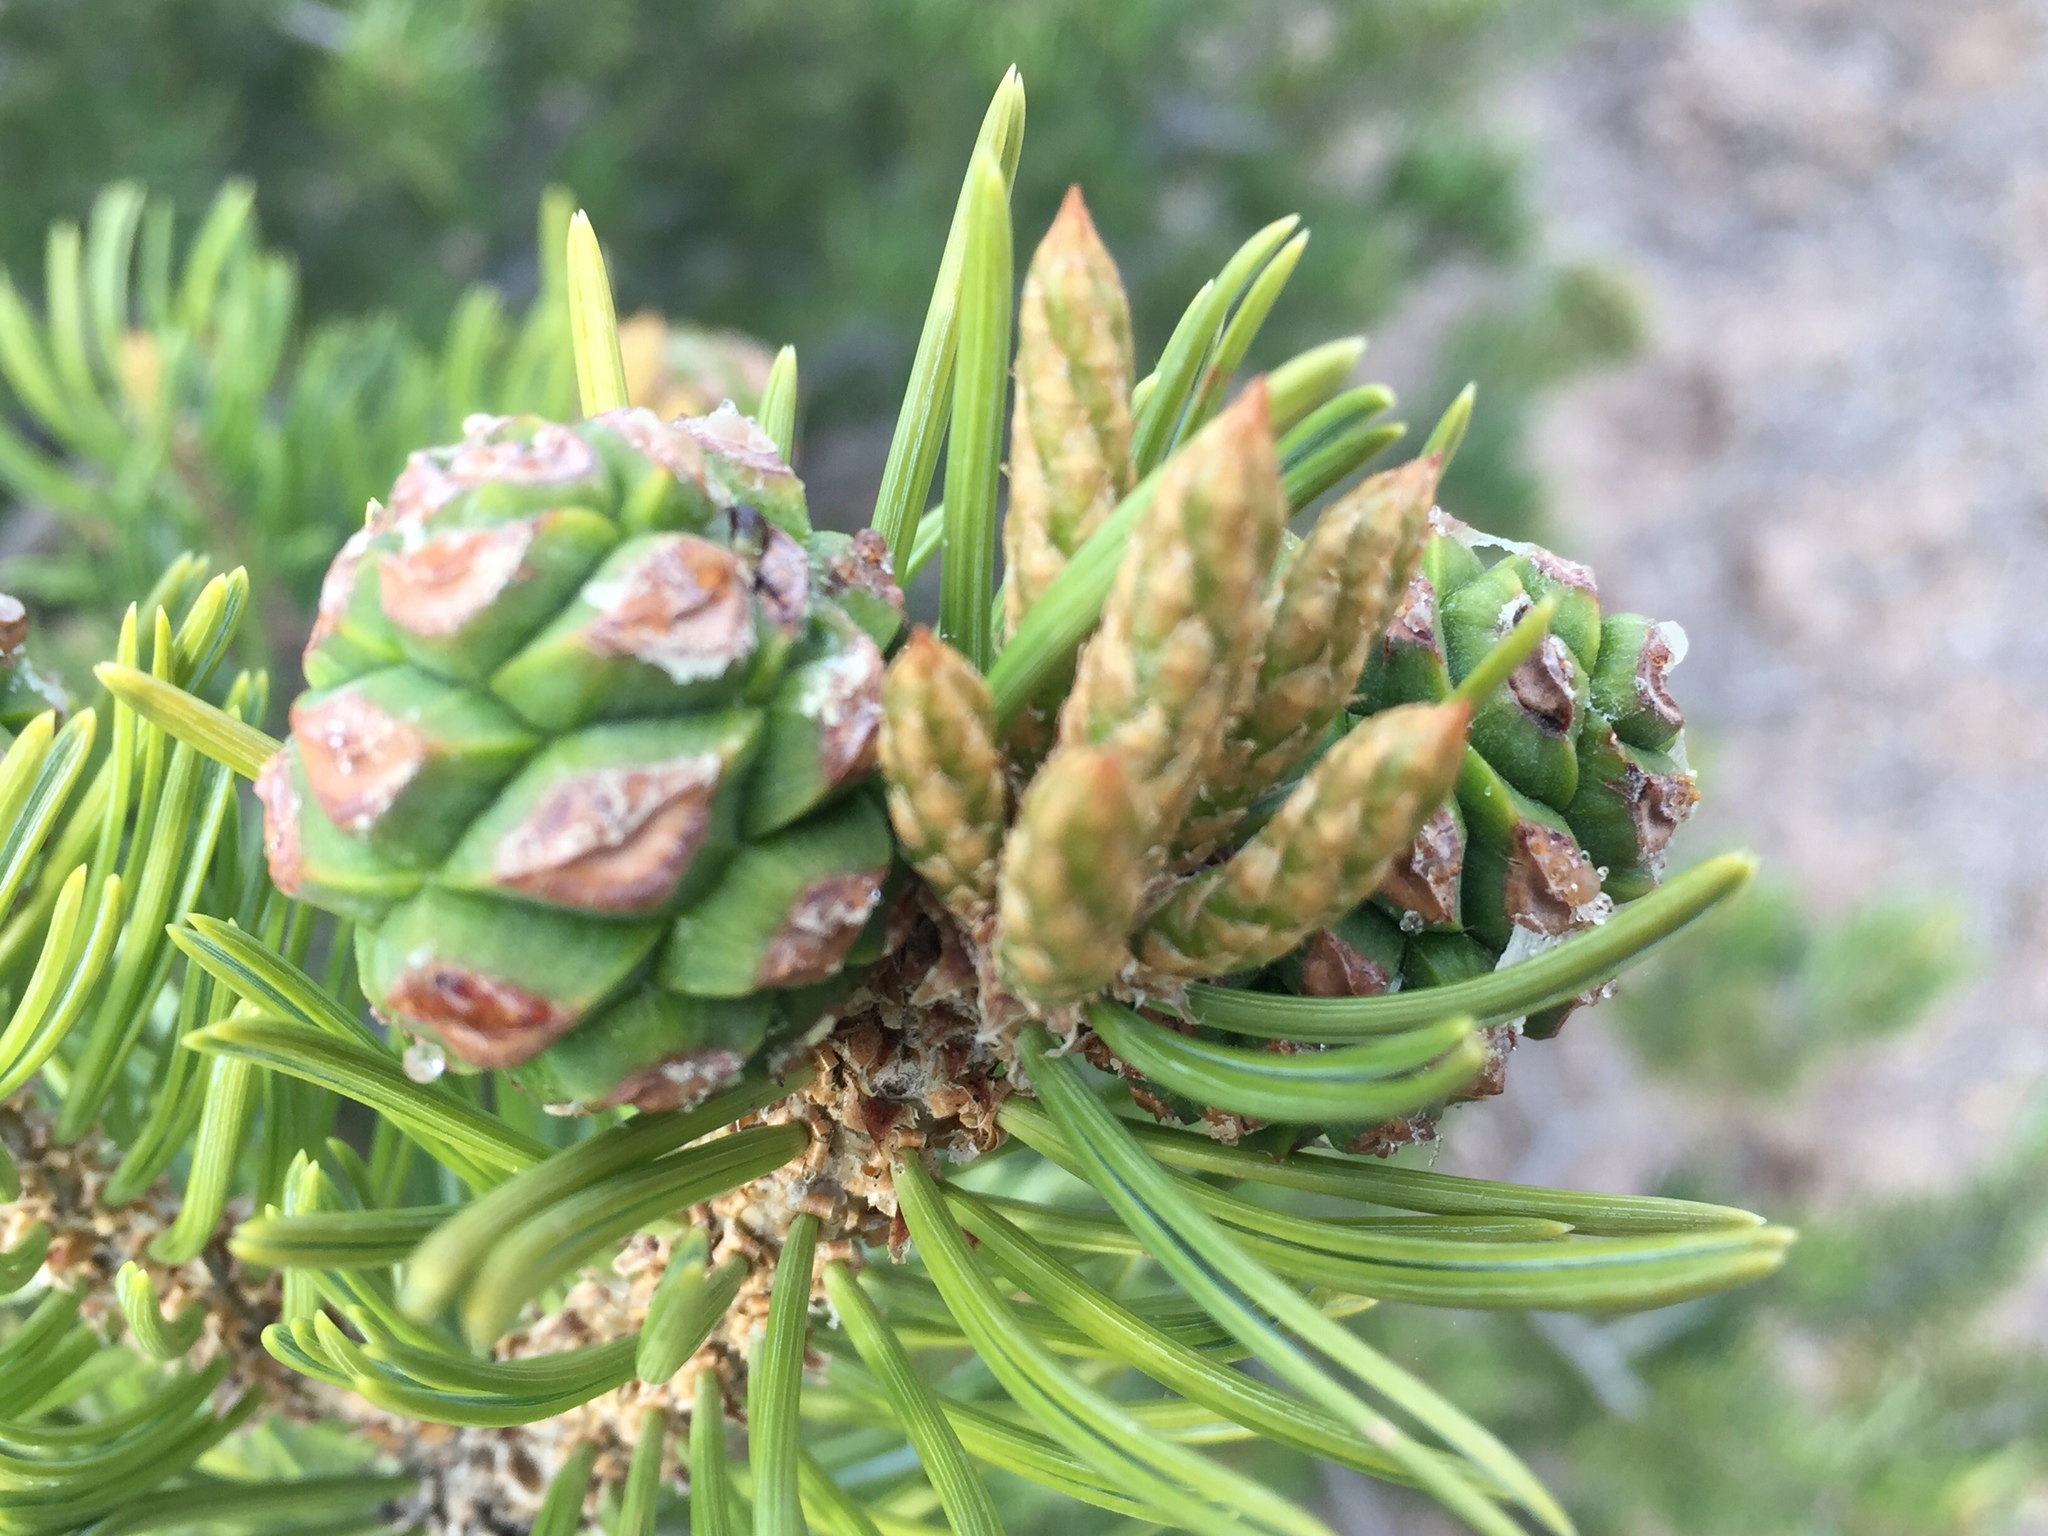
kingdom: Plantae
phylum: Tracheophyta
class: Pinopsida
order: Pinales
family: Pinaceae
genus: Pinus
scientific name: Pinus edulis
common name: Colorado pinyon
